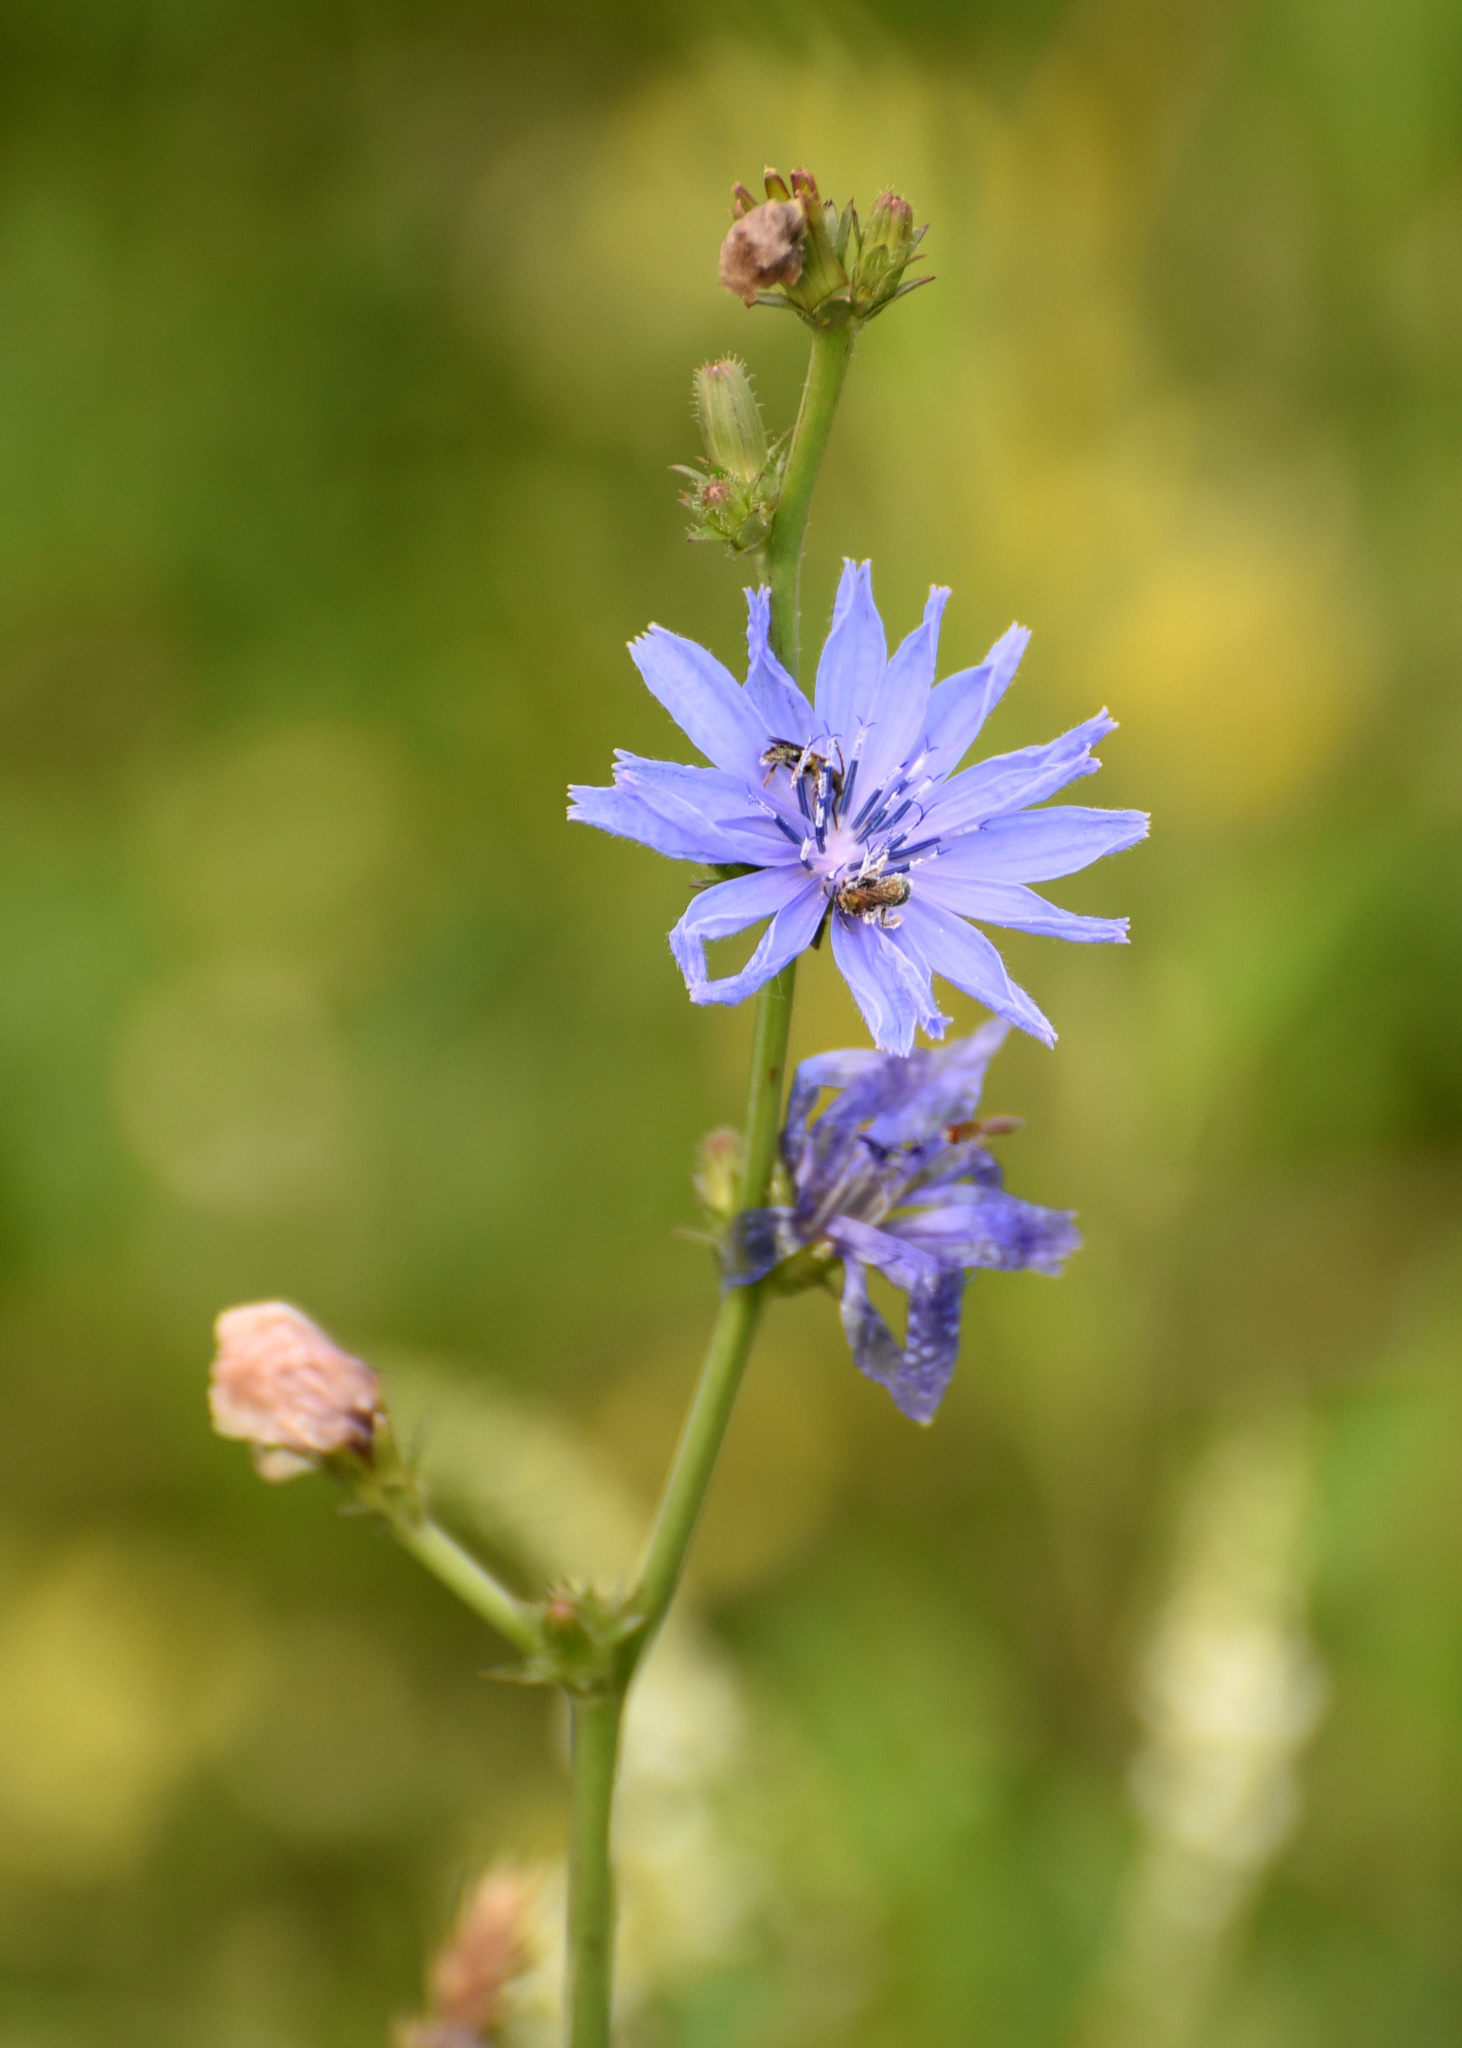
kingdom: Plantae
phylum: Tracheophyta
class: Magnoliopsida
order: Asterales
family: Asteraceae
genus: Cichorium
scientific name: Cichorium intybus
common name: Chicory
